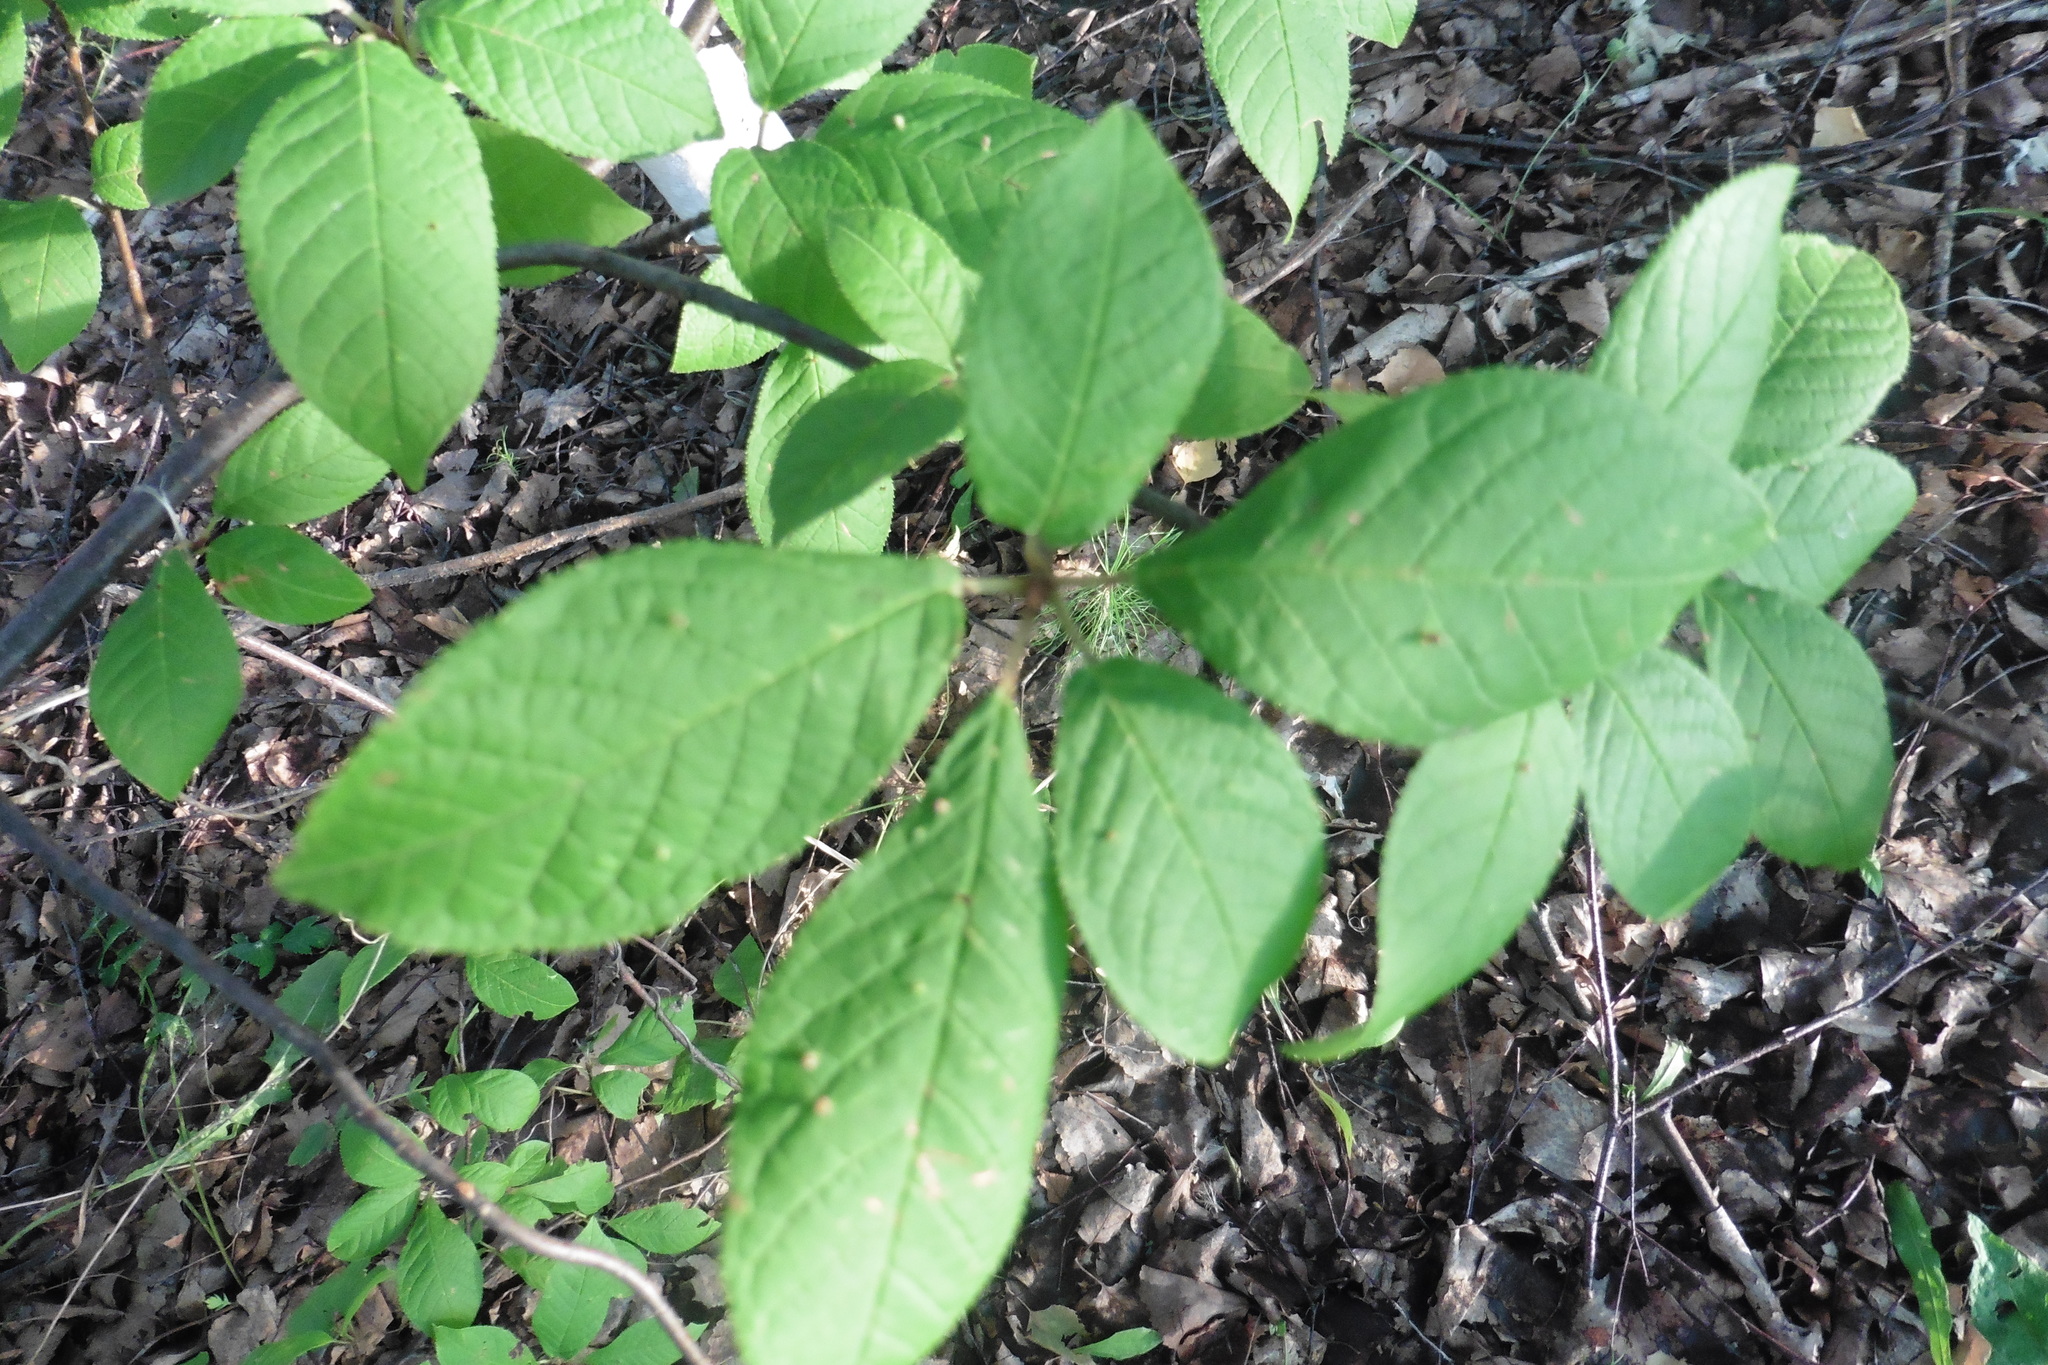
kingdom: Plantae
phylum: Tracheophyta
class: Magnoliopsida
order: Rosales
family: Rosaceae
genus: Prunus
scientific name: Prunus padus
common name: Bird cherry
